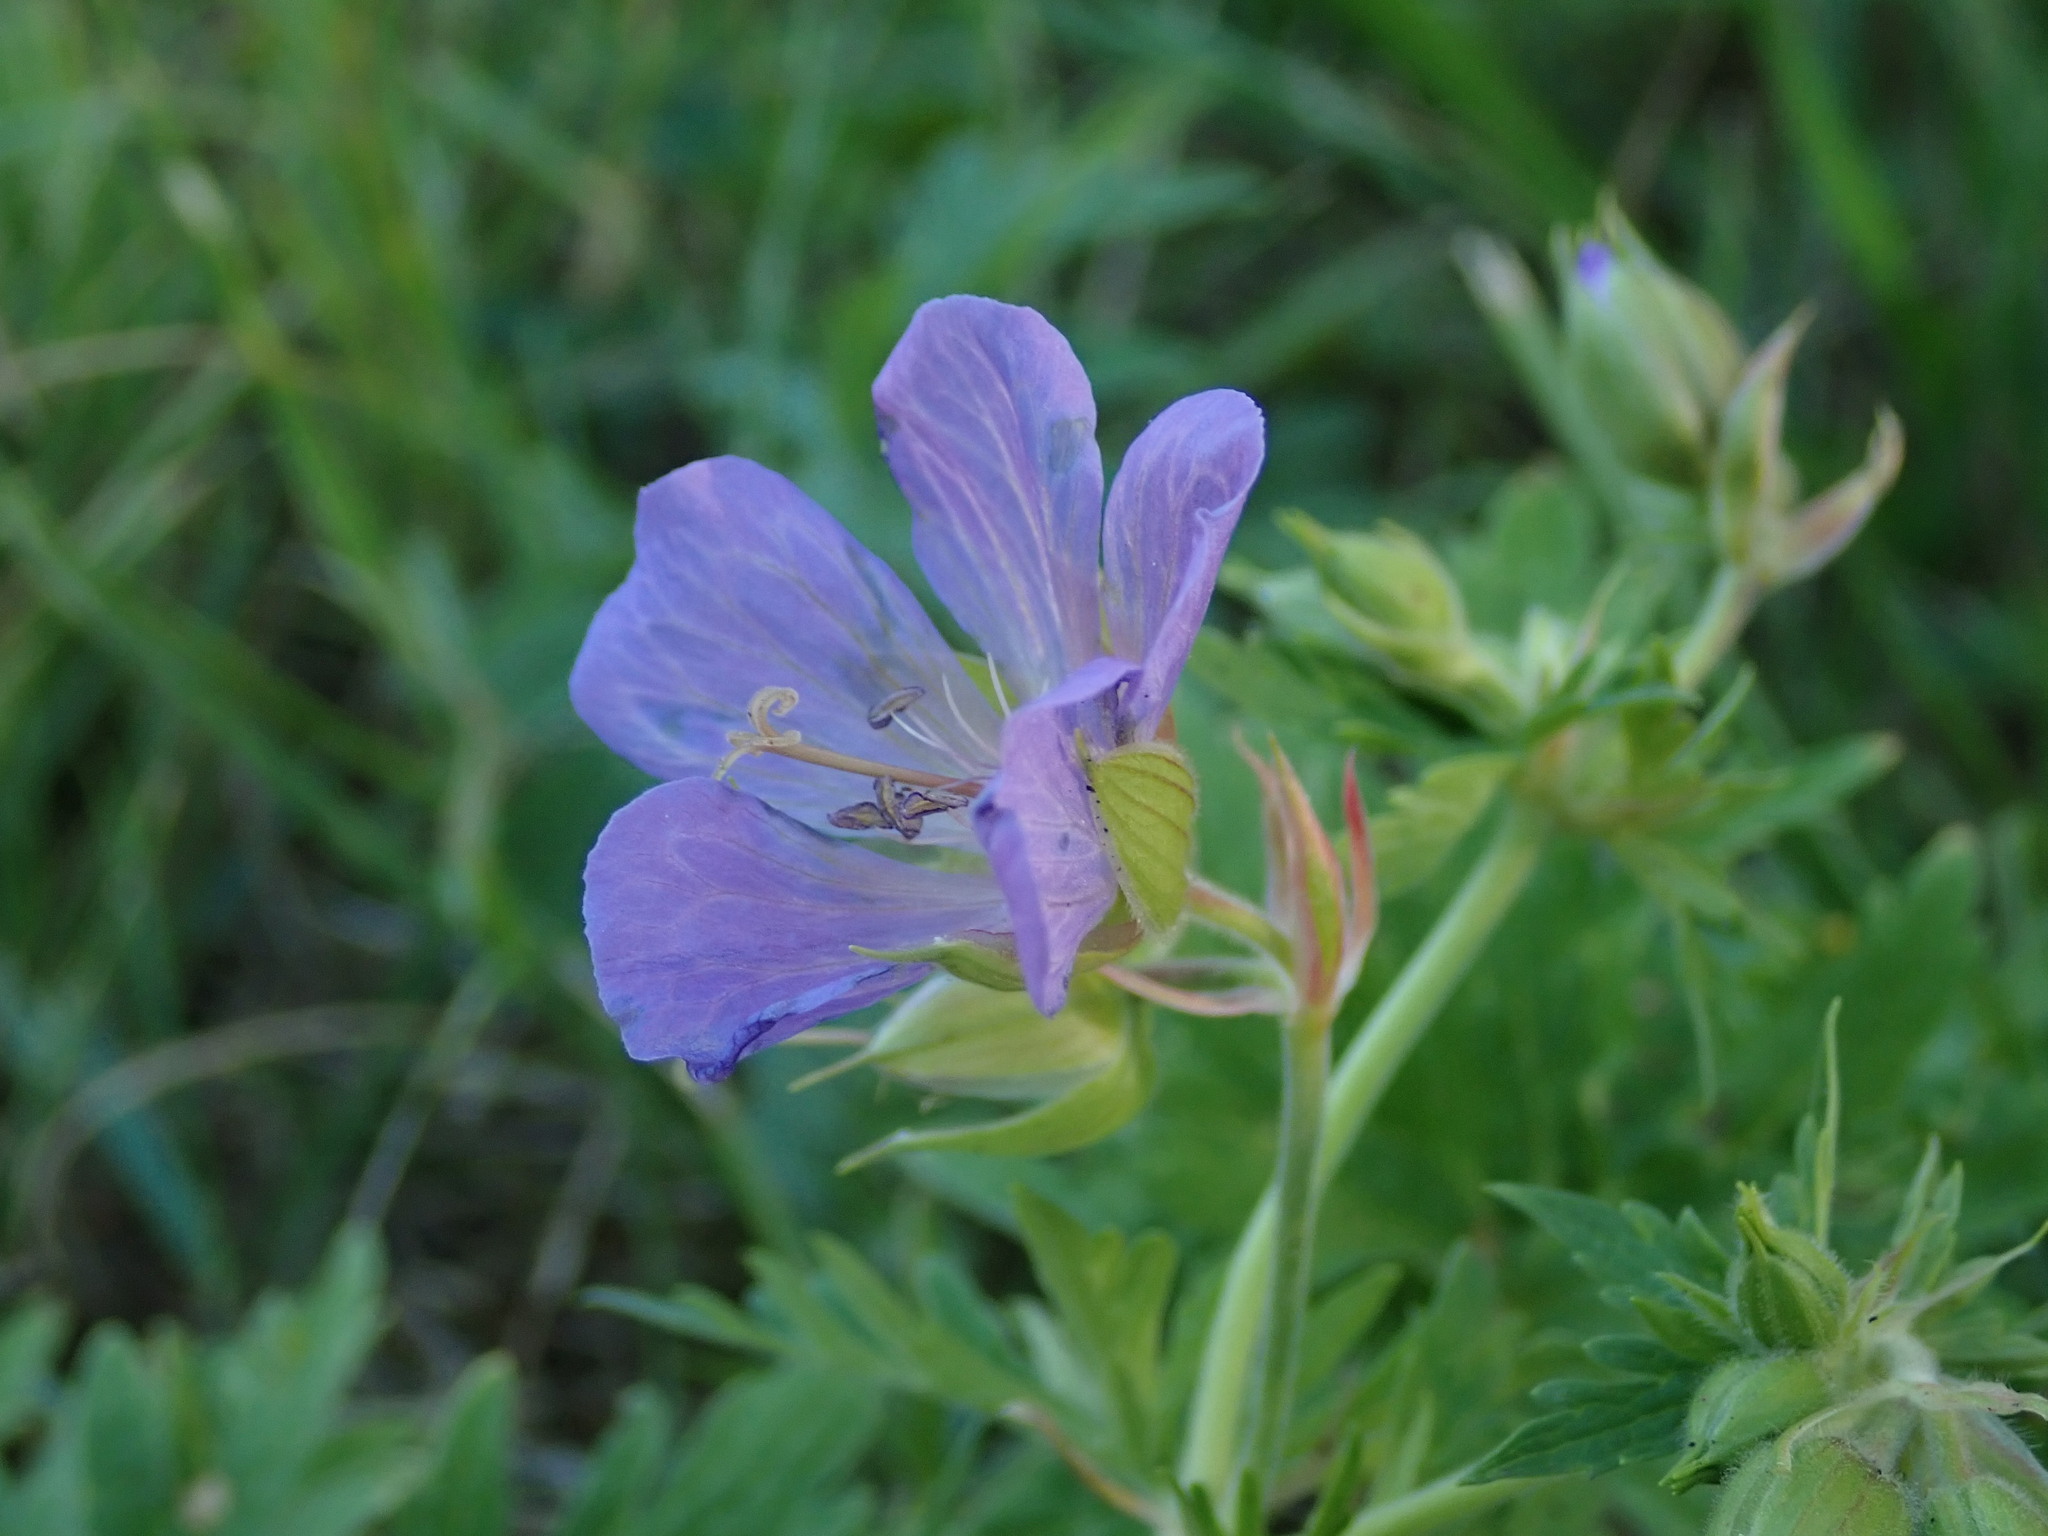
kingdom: Plantae
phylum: Tracheophyta
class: Magnoliopsida
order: Geraniales
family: Geraniaceae
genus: Geranium
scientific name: Geranium pratense
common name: Meadow crane's-bill
